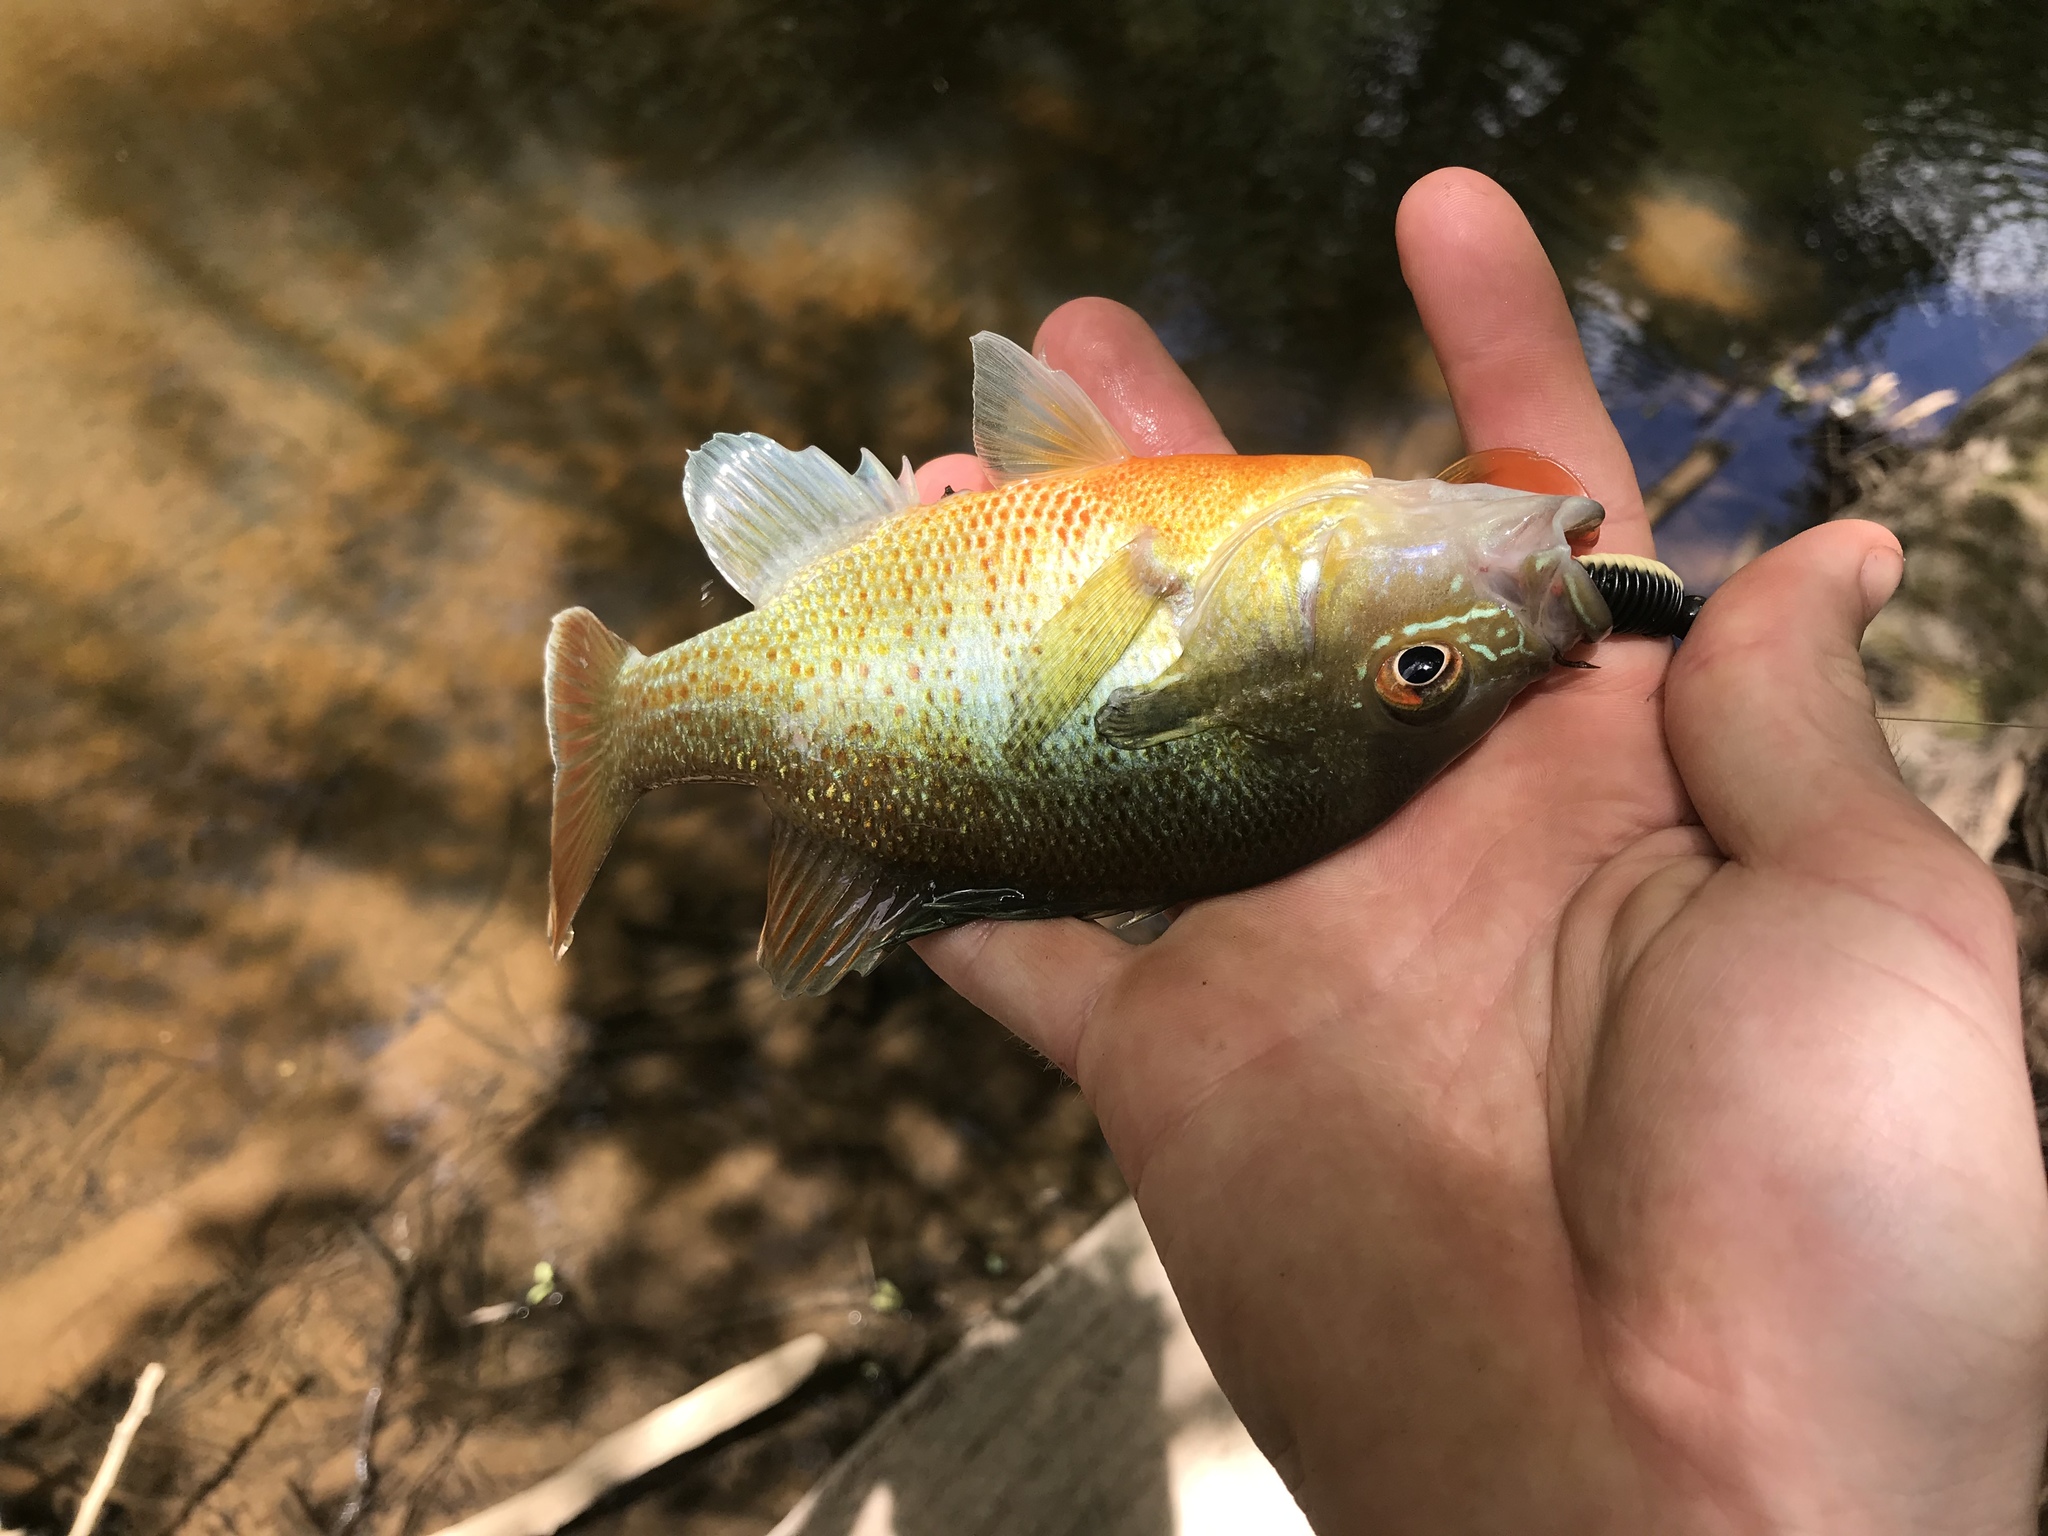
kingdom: Animalia
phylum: Chordata
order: Perciformes
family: Centrarchidae
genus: Lepomis
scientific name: Lepomis auritus
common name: Redbreast sunfish
